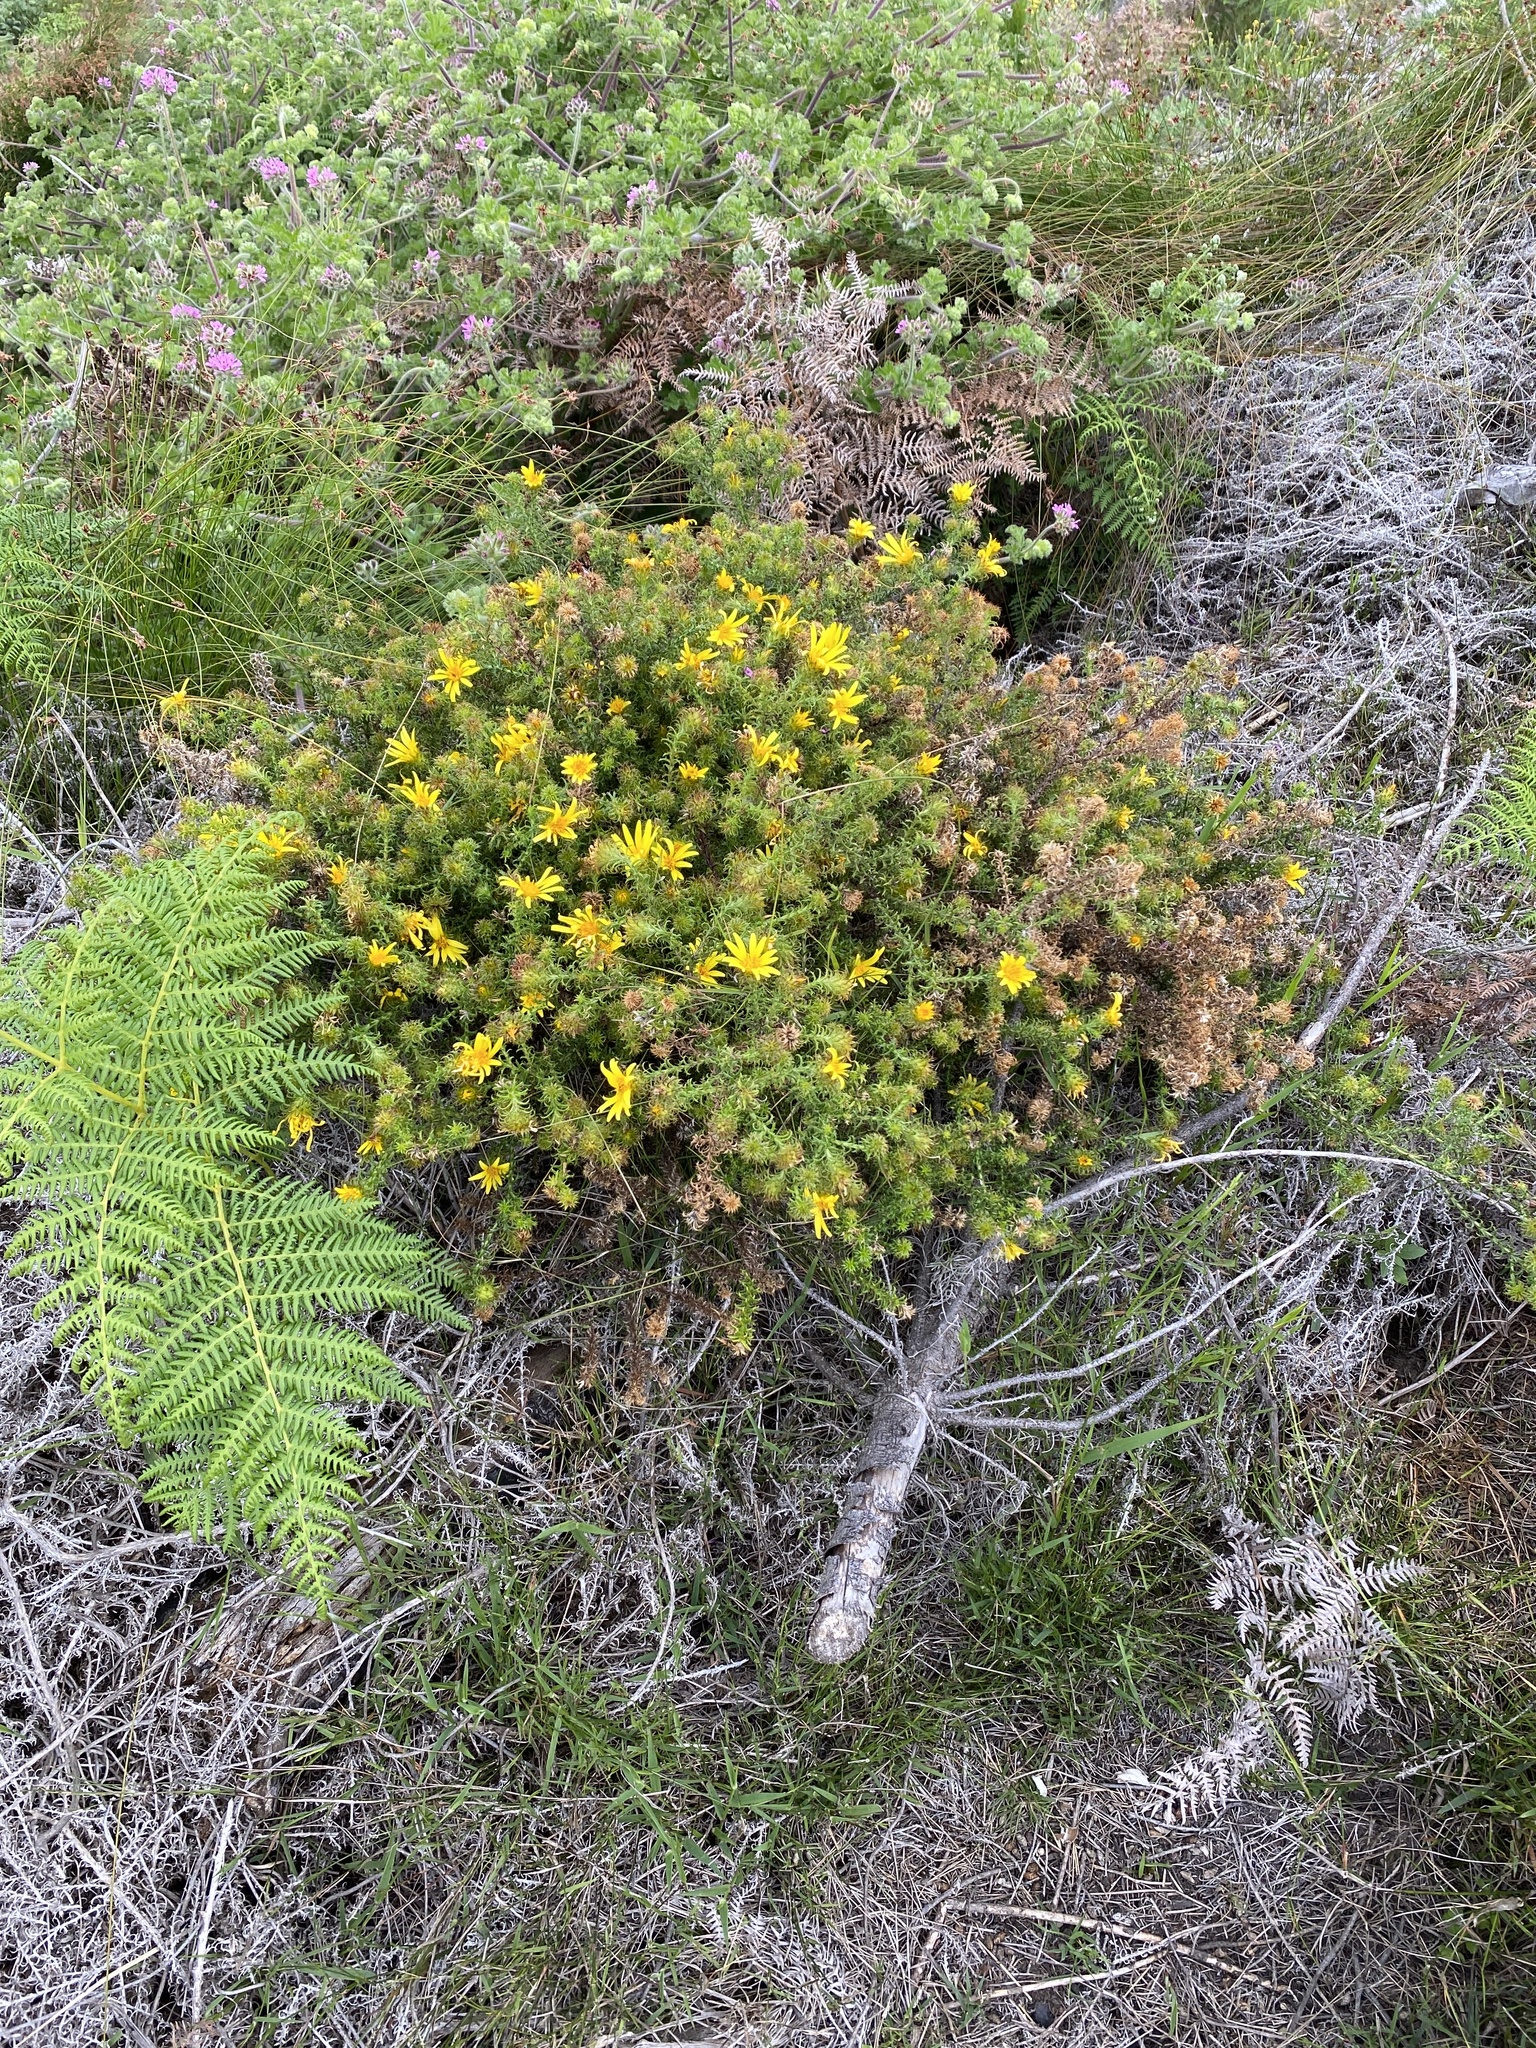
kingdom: Plantae
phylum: Tracheophyta
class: Magnoliopsida
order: Asterales
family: Asteraceae
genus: Cullumia
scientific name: Cullumia decurrens
